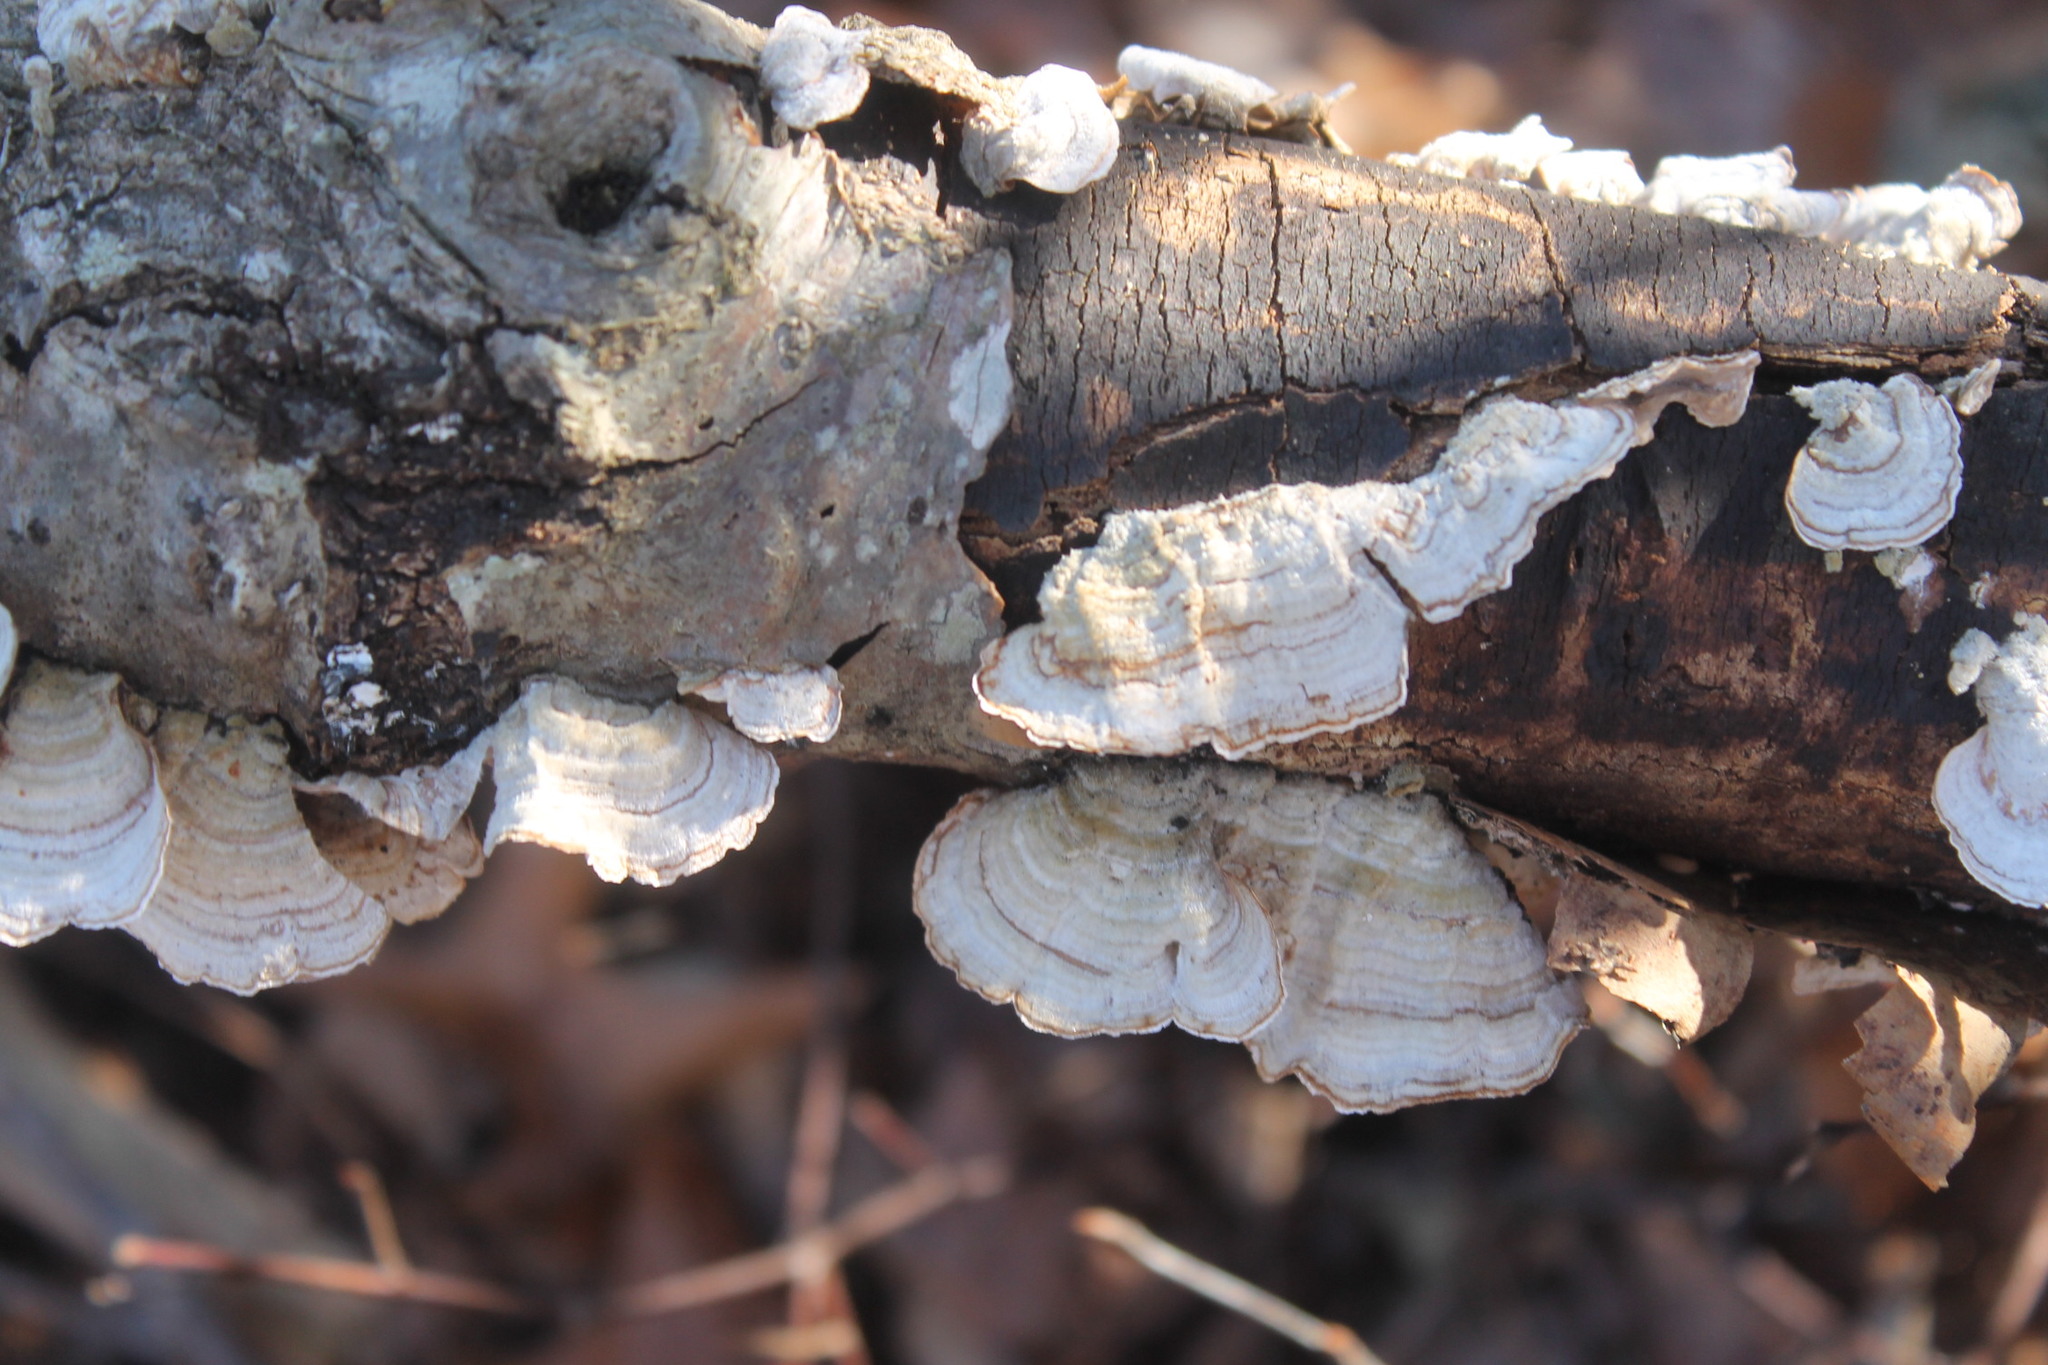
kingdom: Fungi
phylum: Basidiomycota
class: Agaricomycetes
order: Russulales
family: Stereaceae
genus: Stereum
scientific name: Stereum lobatum
